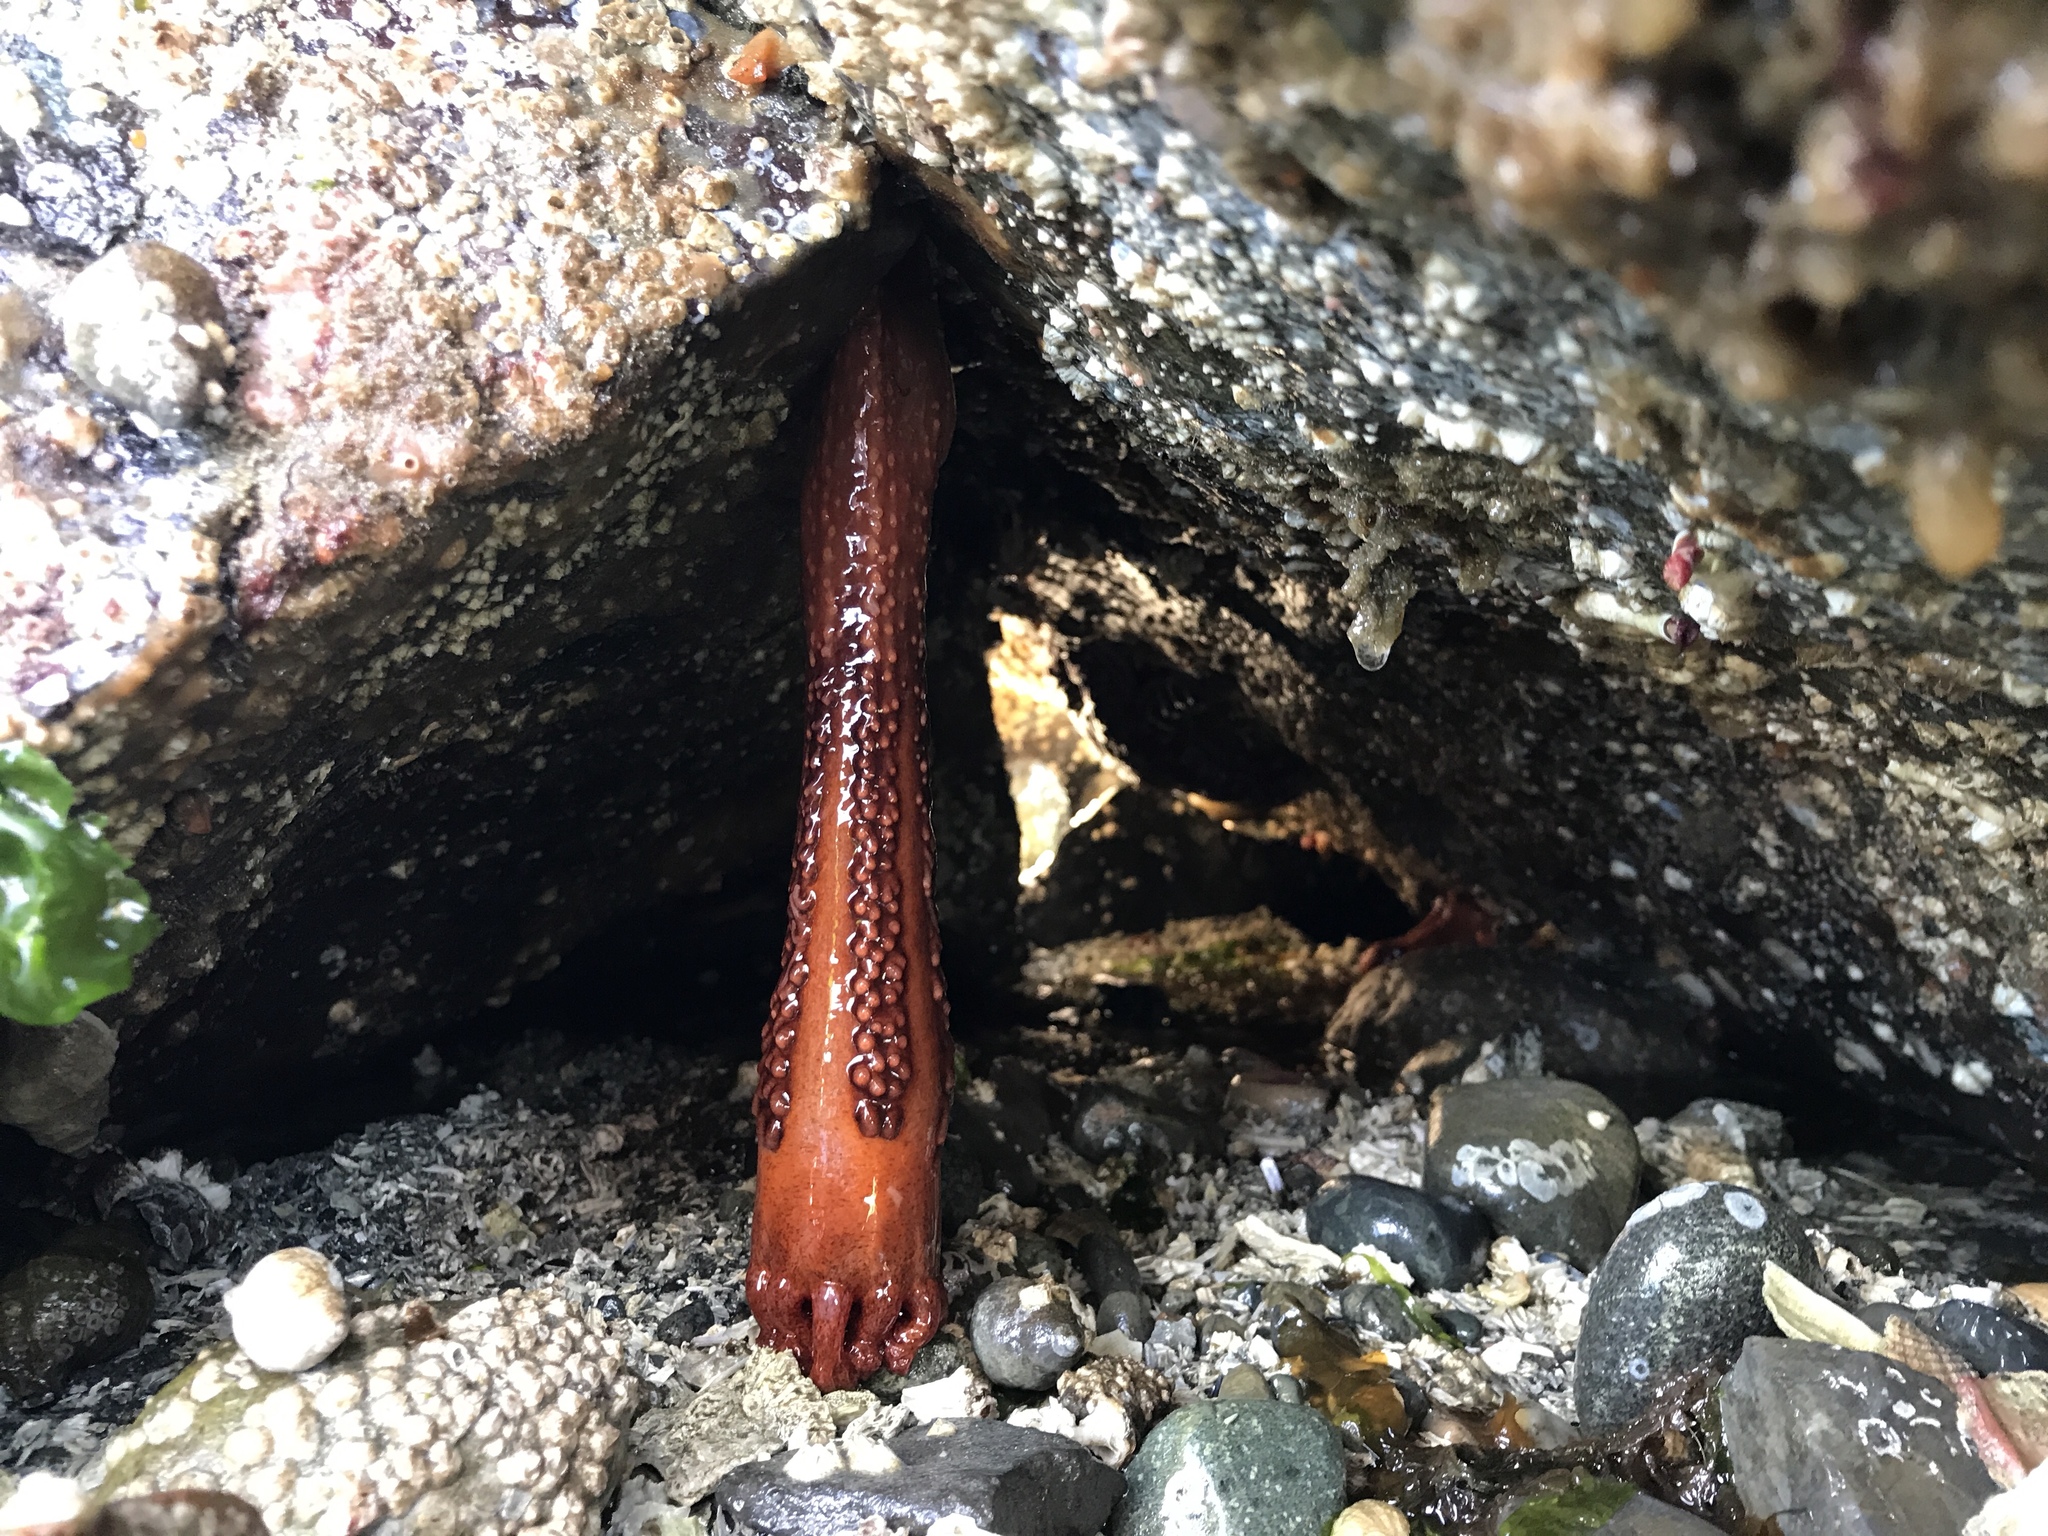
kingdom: Animalia
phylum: Echinodermata
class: Holothuroidea
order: Dendrochirotida
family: Cucumariidae
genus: Cucumaria
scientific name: Cucumaria miniata
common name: Orange sea cucumber
